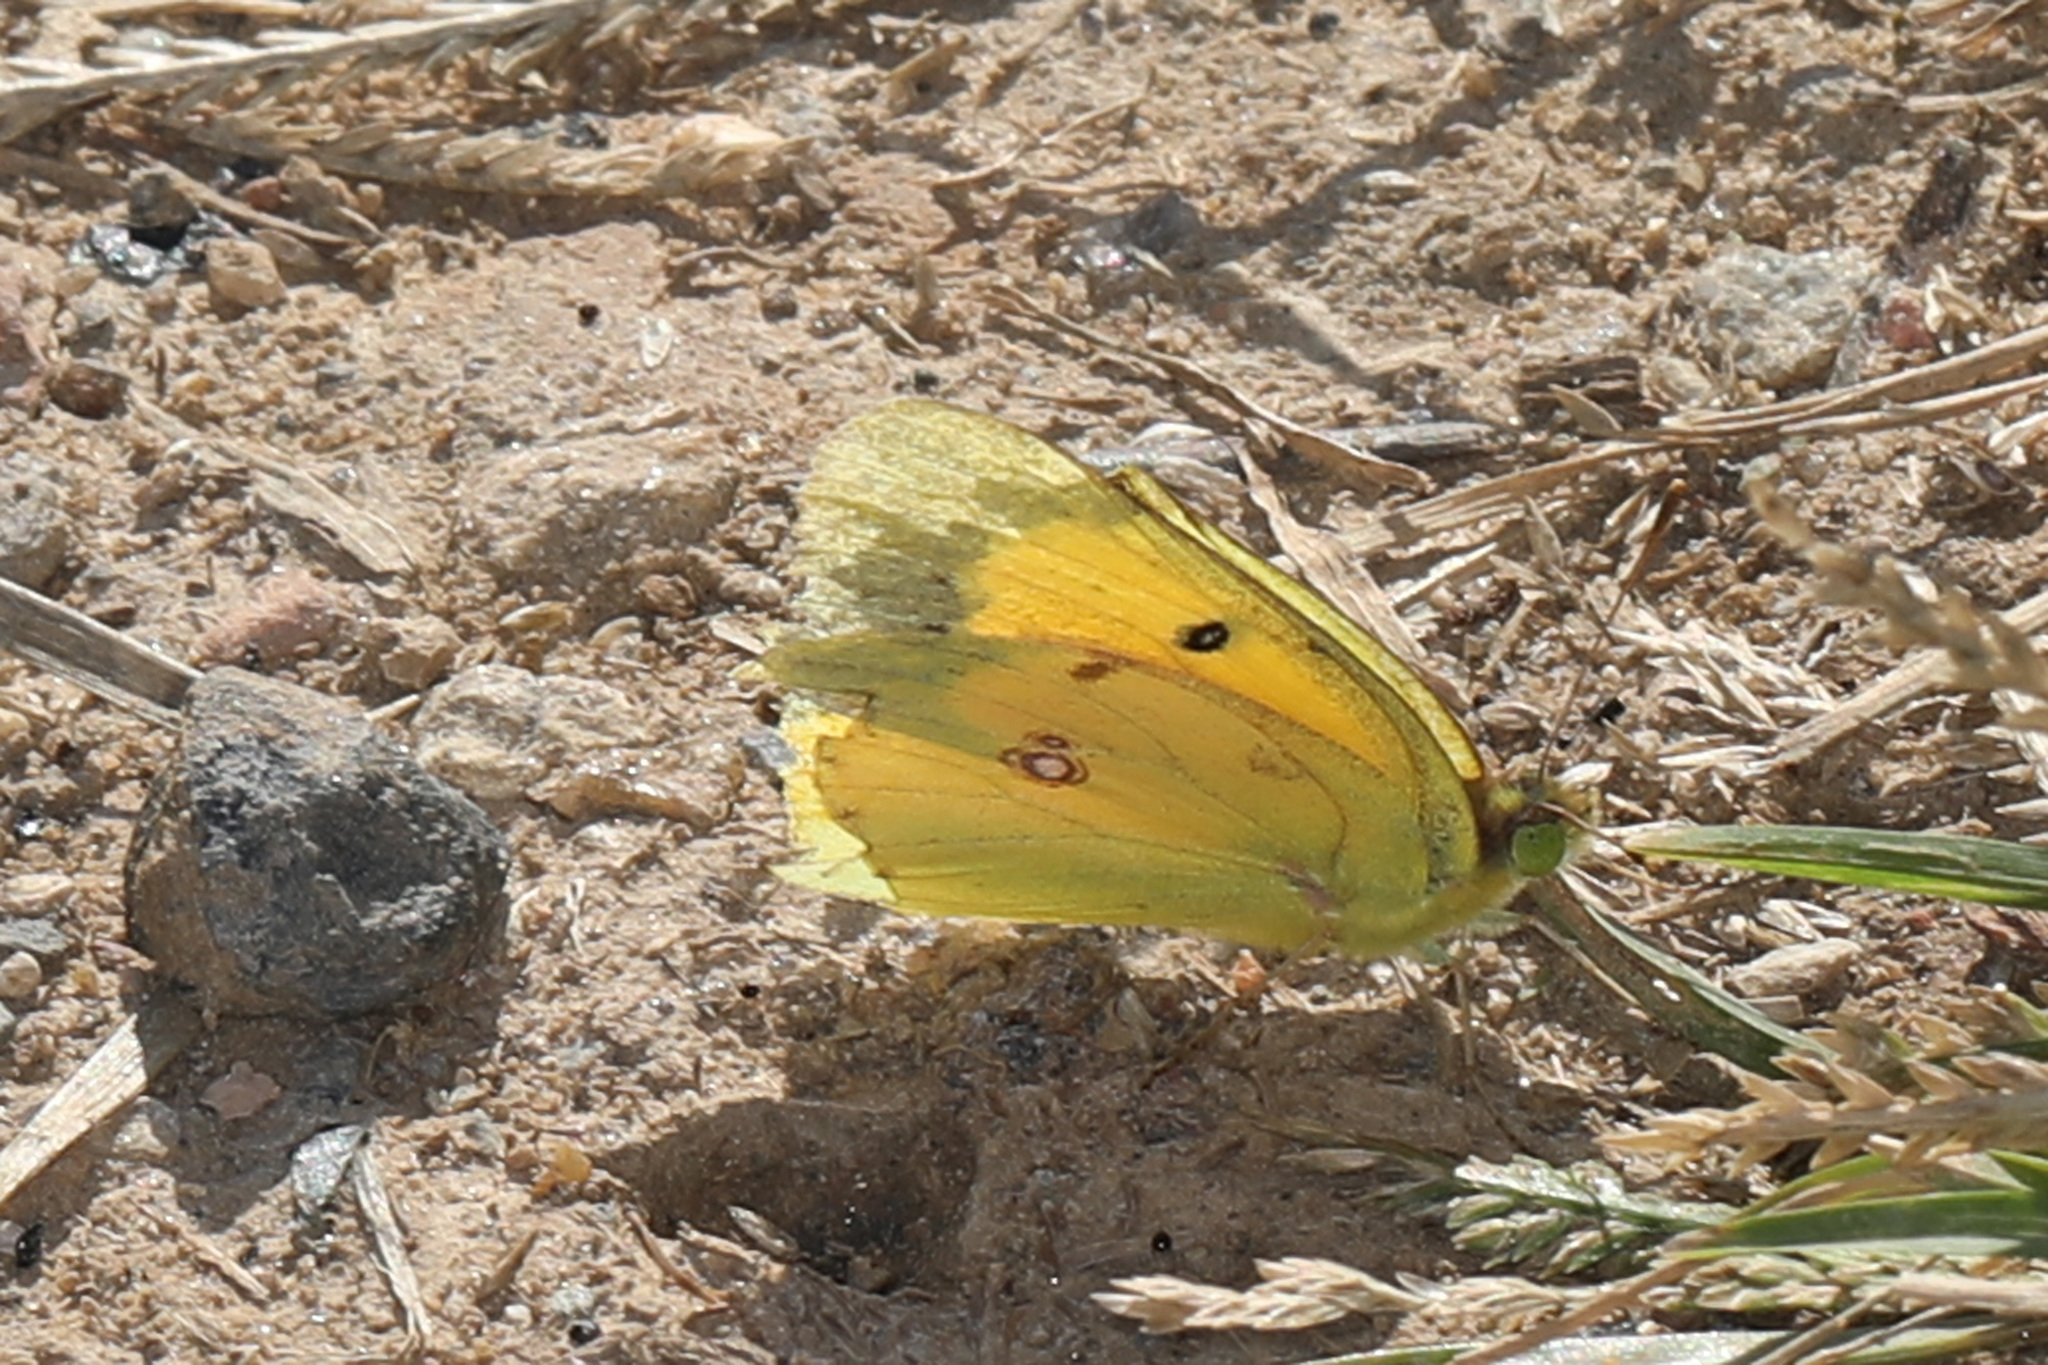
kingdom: Animalia
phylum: Arthropoda
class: Insecta
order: Lepidoptera
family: Pieridae
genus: Colias
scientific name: Colias eurytheme
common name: Alfalfa butterfly
